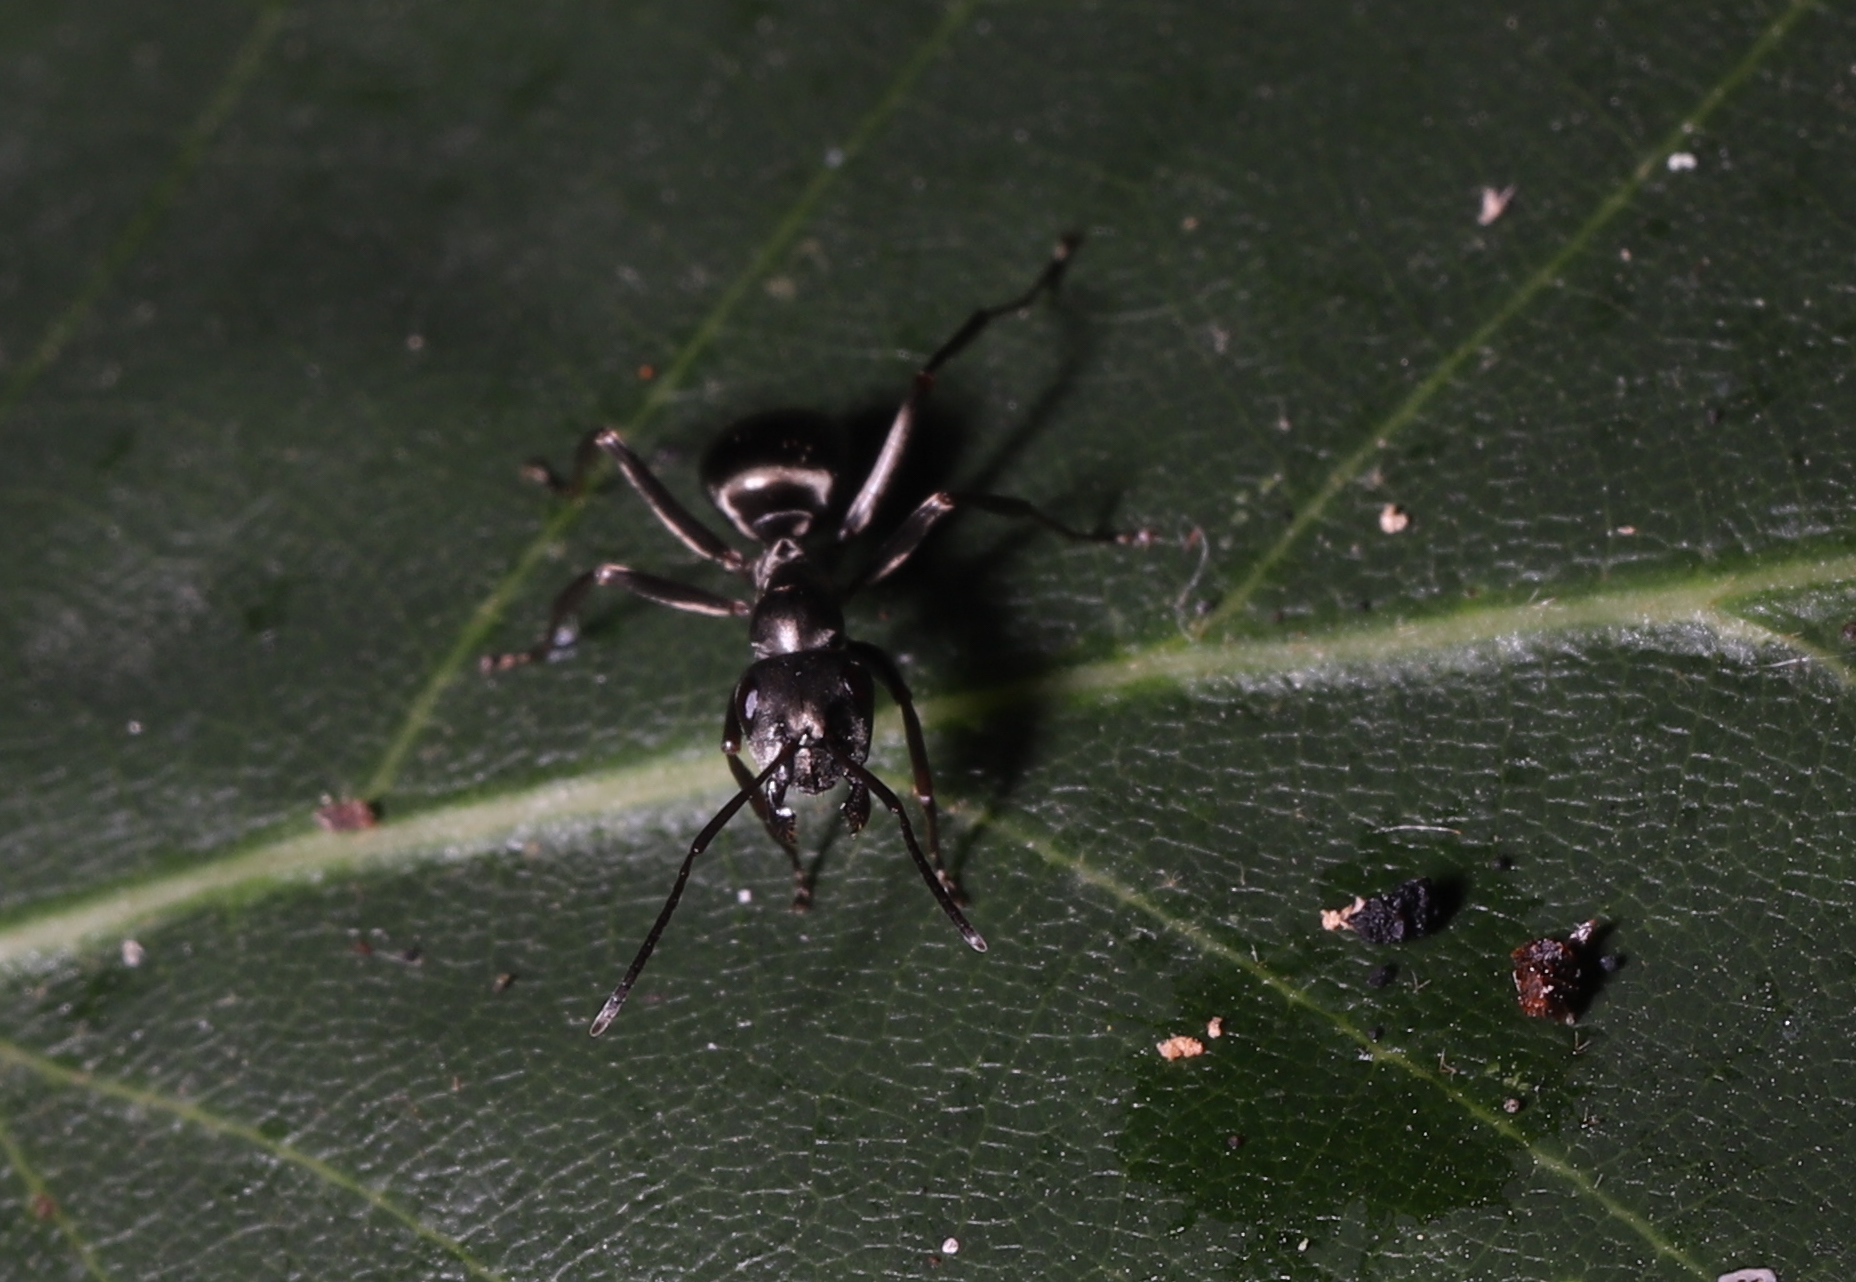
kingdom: Animalia
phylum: Arthropoda
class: Insecta
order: Hymenoptera
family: Formicidae
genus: Formica
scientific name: Formica
